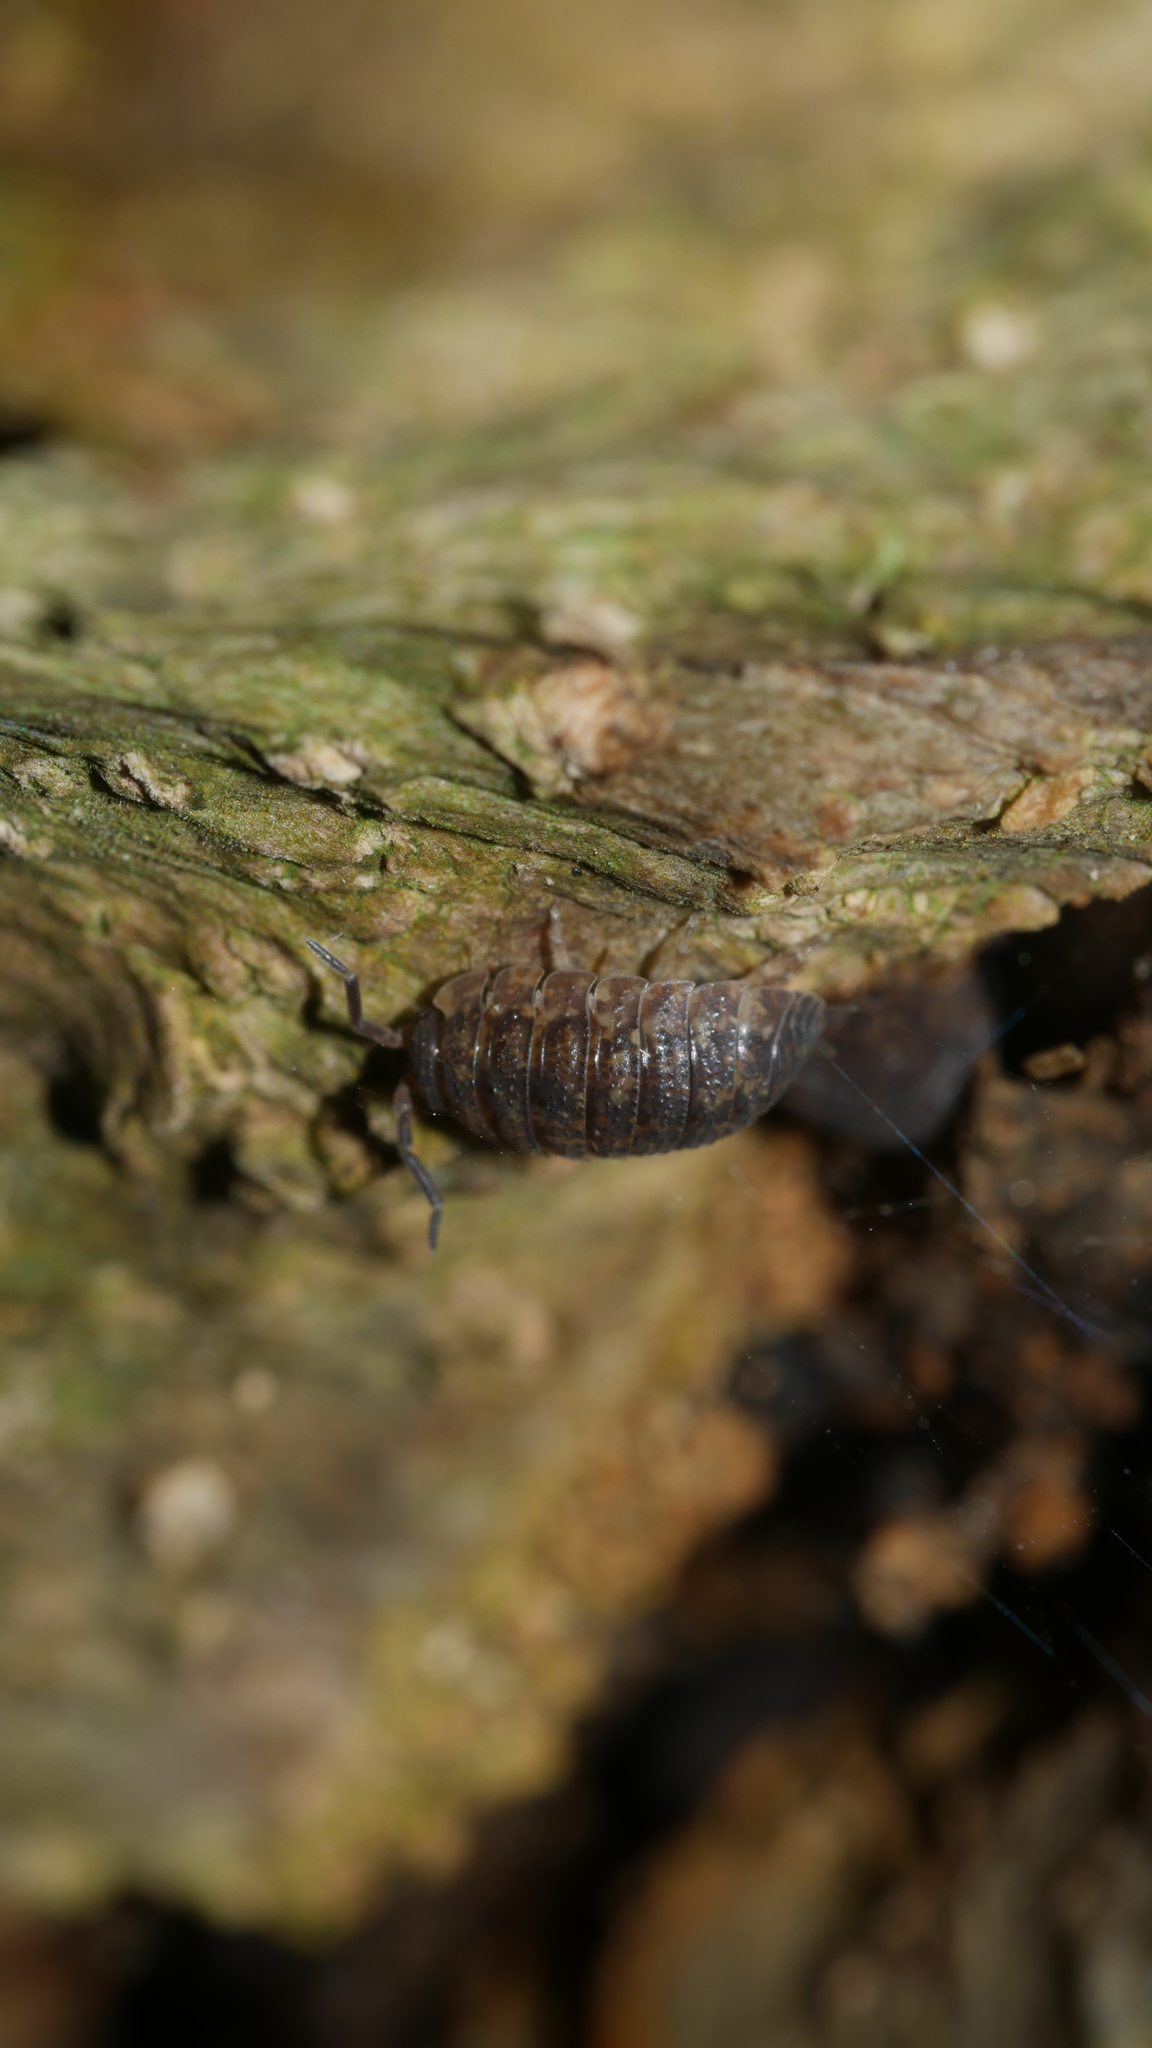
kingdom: Animalia
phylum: Arthropoda
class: Malacostraca
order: Isopoda
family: Porcellionidae
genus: Porcellio
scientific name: Porcellio scaber
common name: Common rough woodlouse
